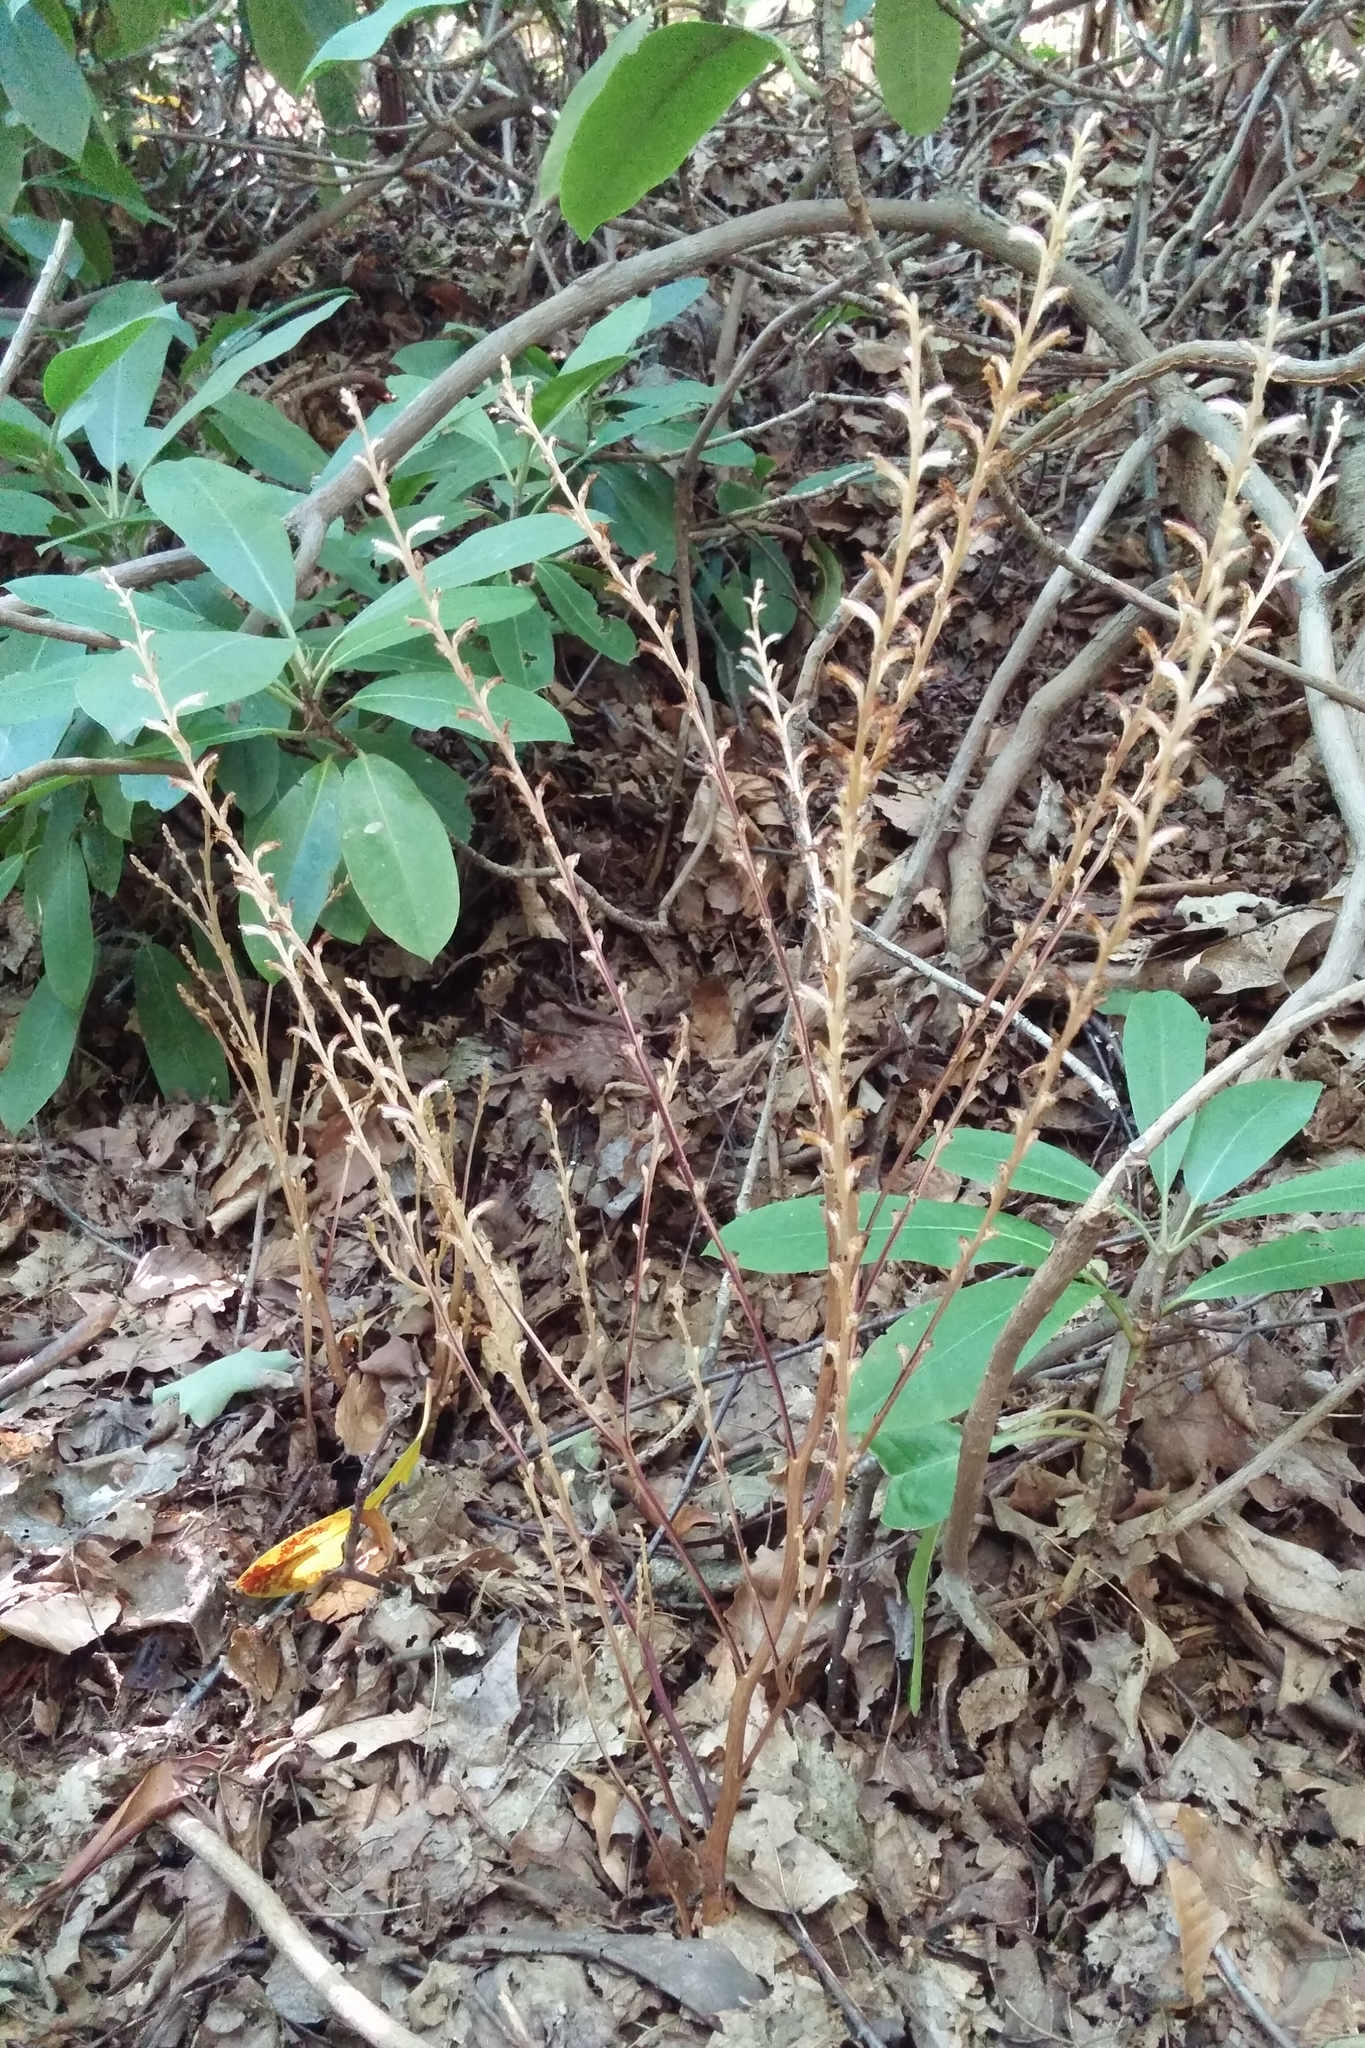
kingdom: Plantae
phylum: Tracheophyta
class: Magnoliopsida
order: Lamiales
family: Orobanchaceae
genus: Epifagus
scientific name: Epifagus virginiana
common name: Beechdrops
